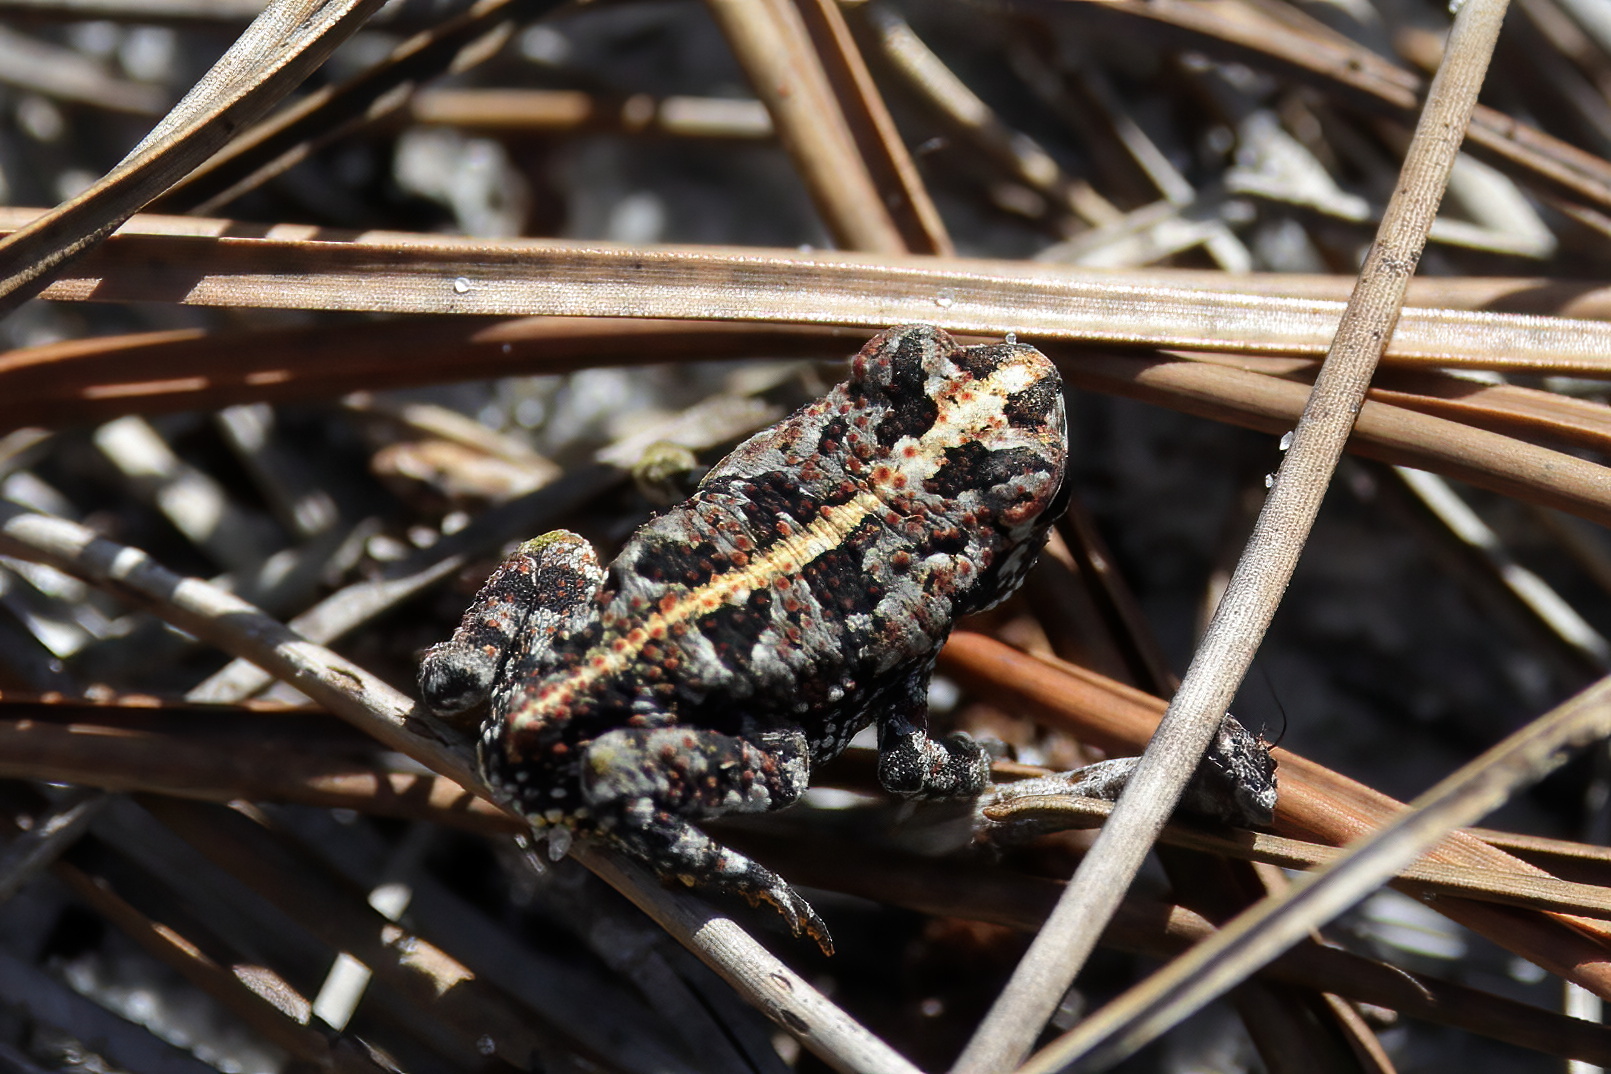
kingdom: Animalia
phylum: Chordata
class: Amphibia
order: Anura
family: Bufonidae
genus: Anaxyrus
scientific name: Anaxyrus quercicus
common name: Oak toad
